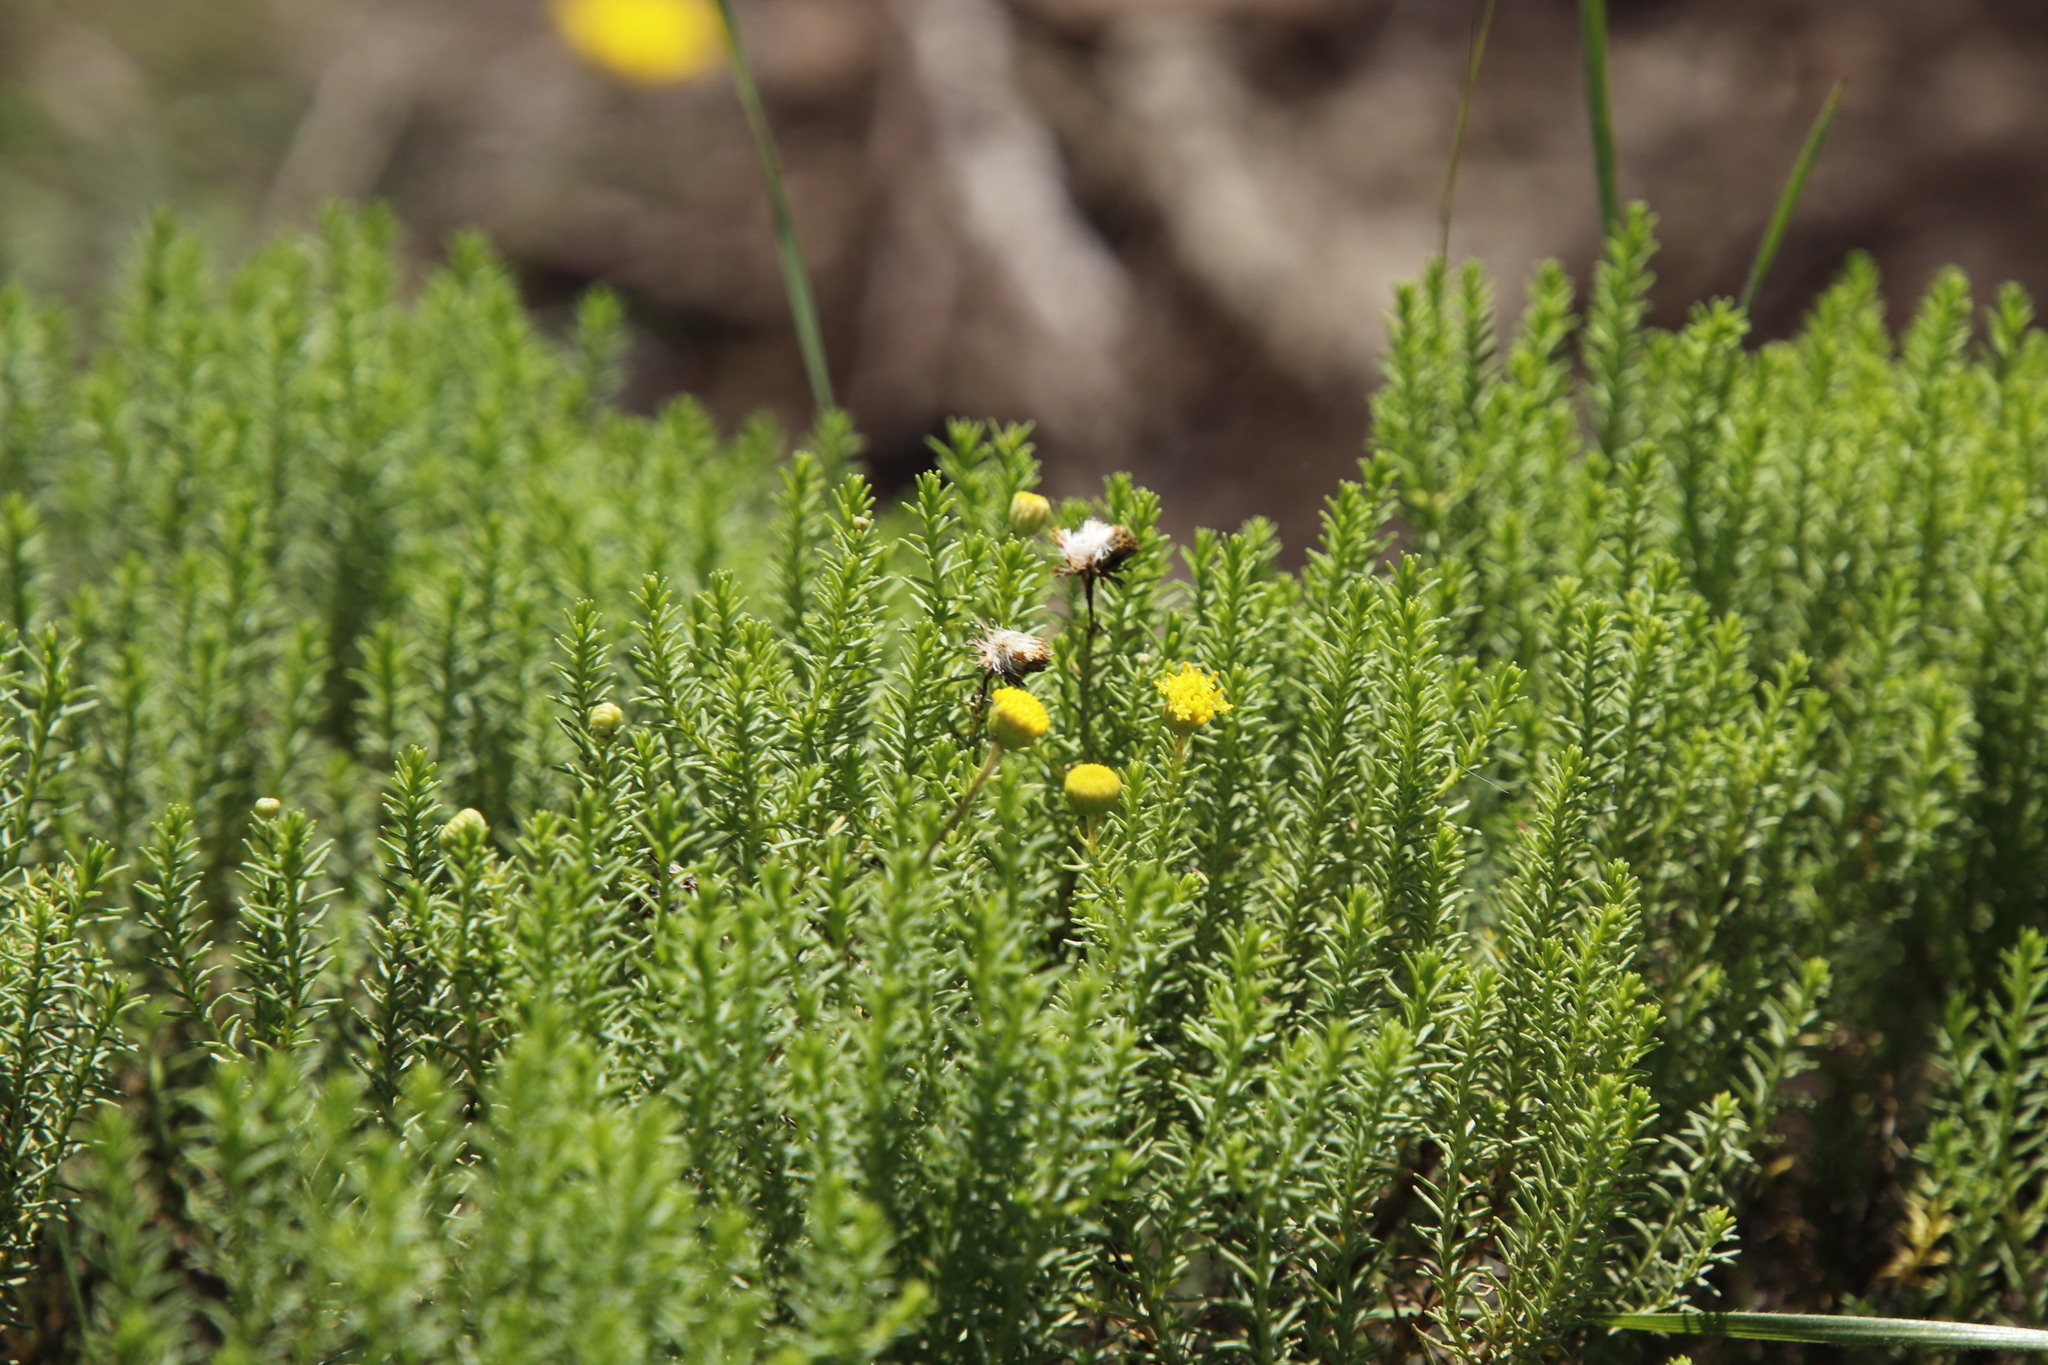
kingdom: Plantae
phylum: Tracheophyta
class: Magnoliopsida
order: Asterales
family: Asteraceae
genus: Chrysocoma
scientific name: Chrysocoma ciliata
